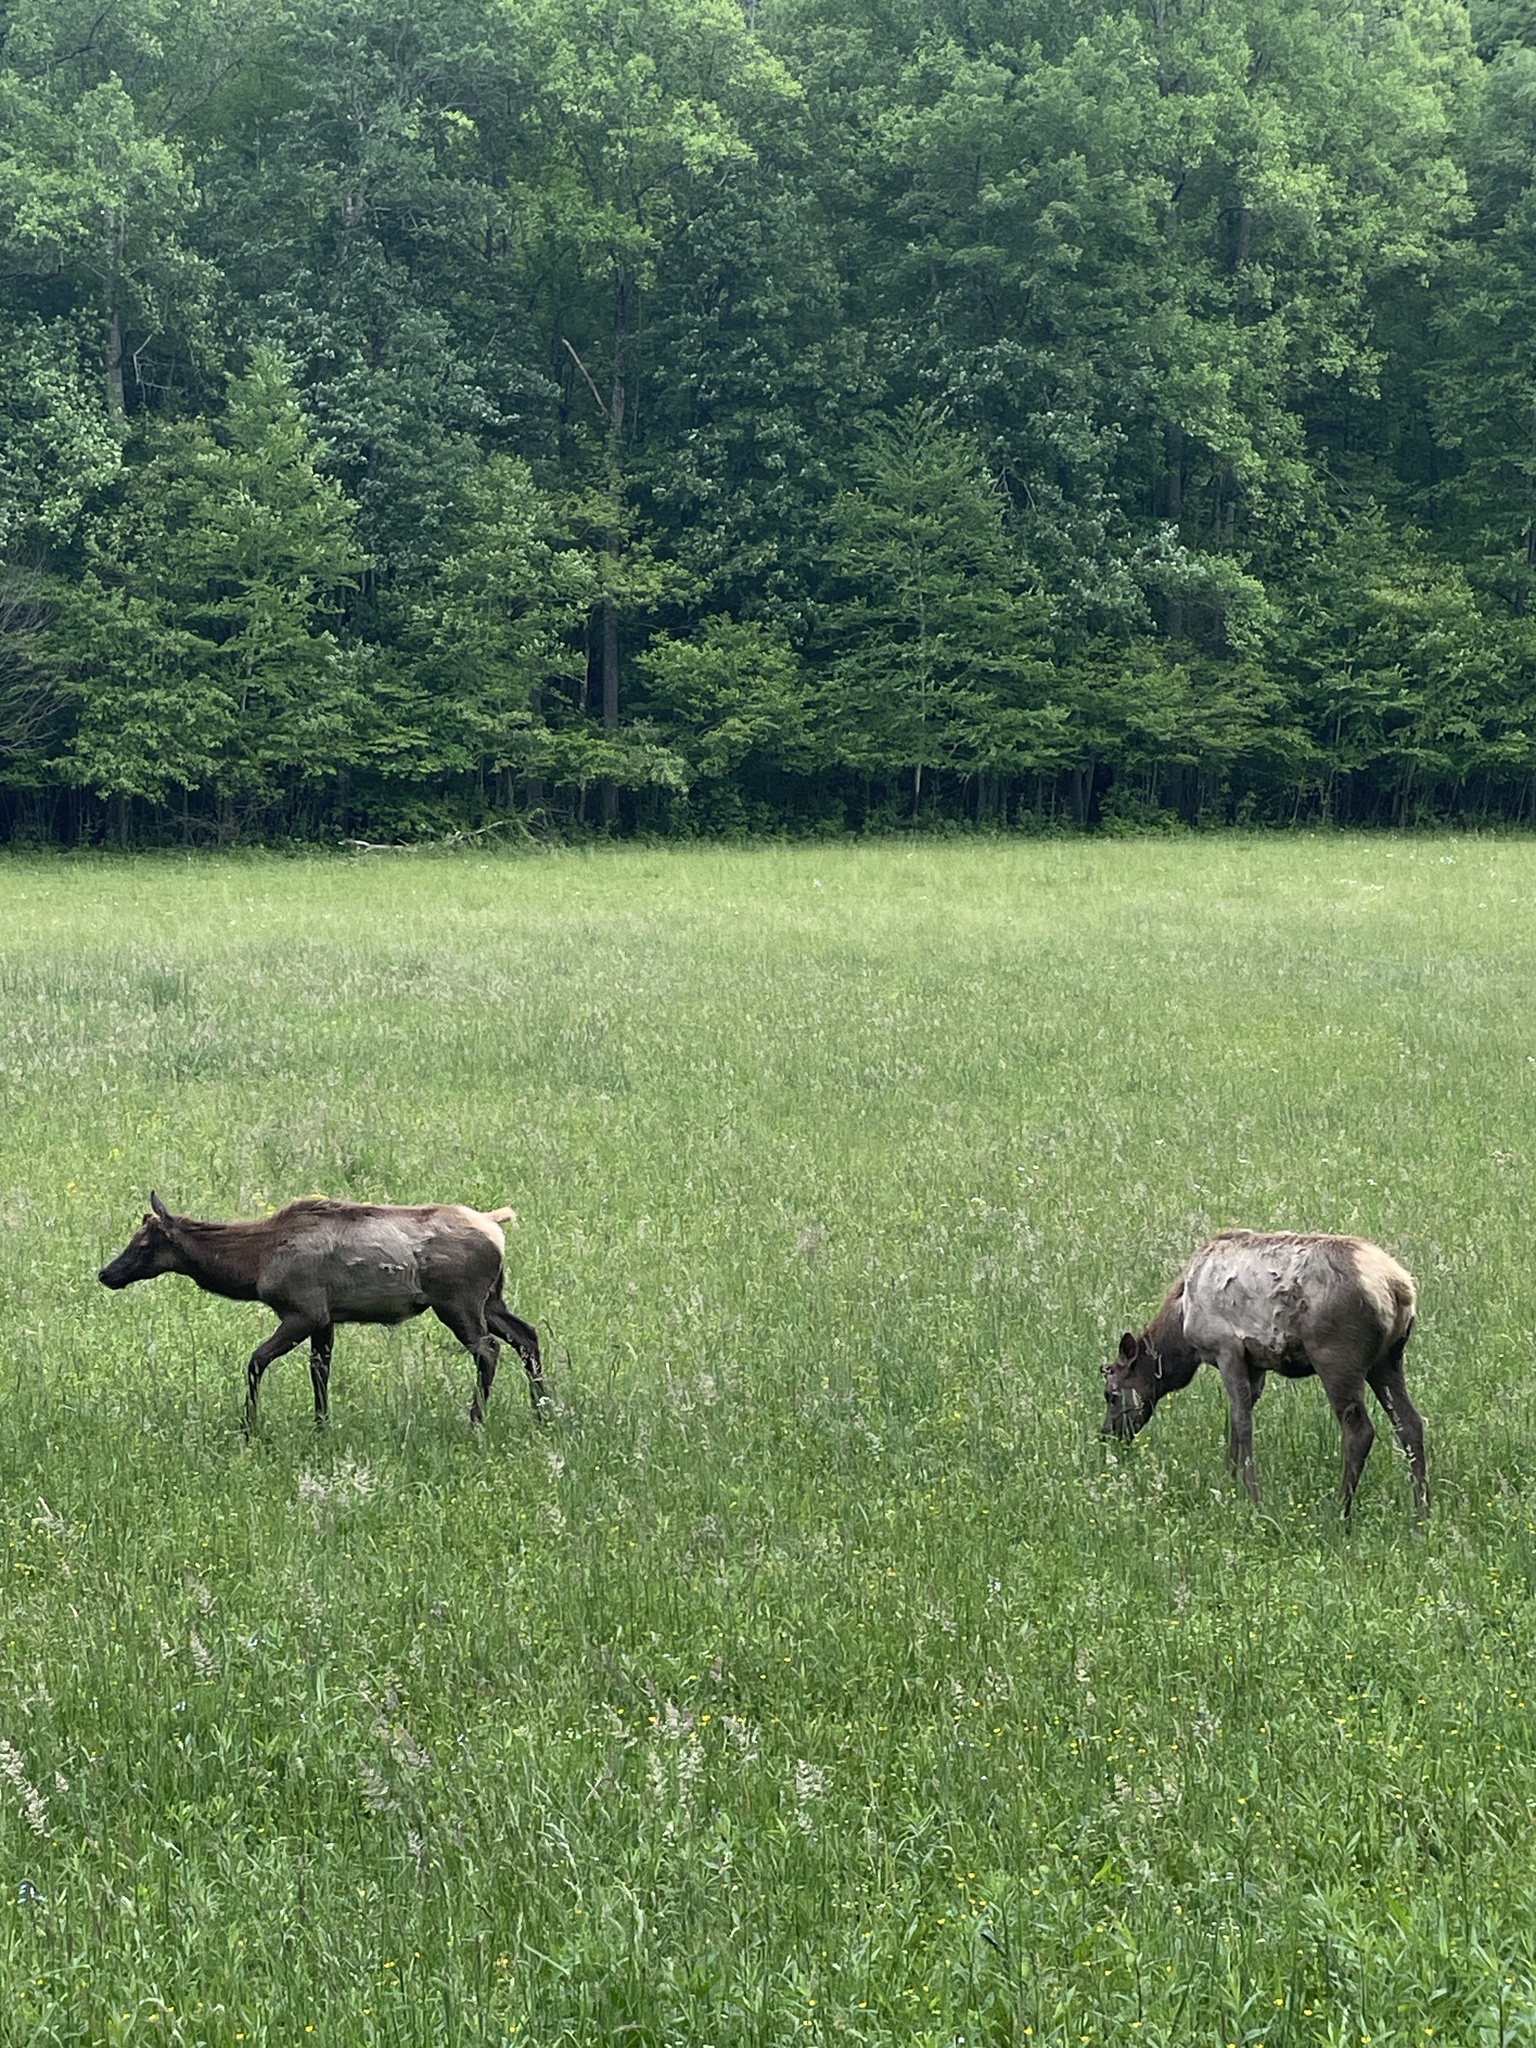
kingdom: Animalia
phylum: Chordata
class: Mammalia
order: Artiodactyla
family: Cervidae
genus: Cervus
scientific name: Cervus elaphus
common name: Red deer
